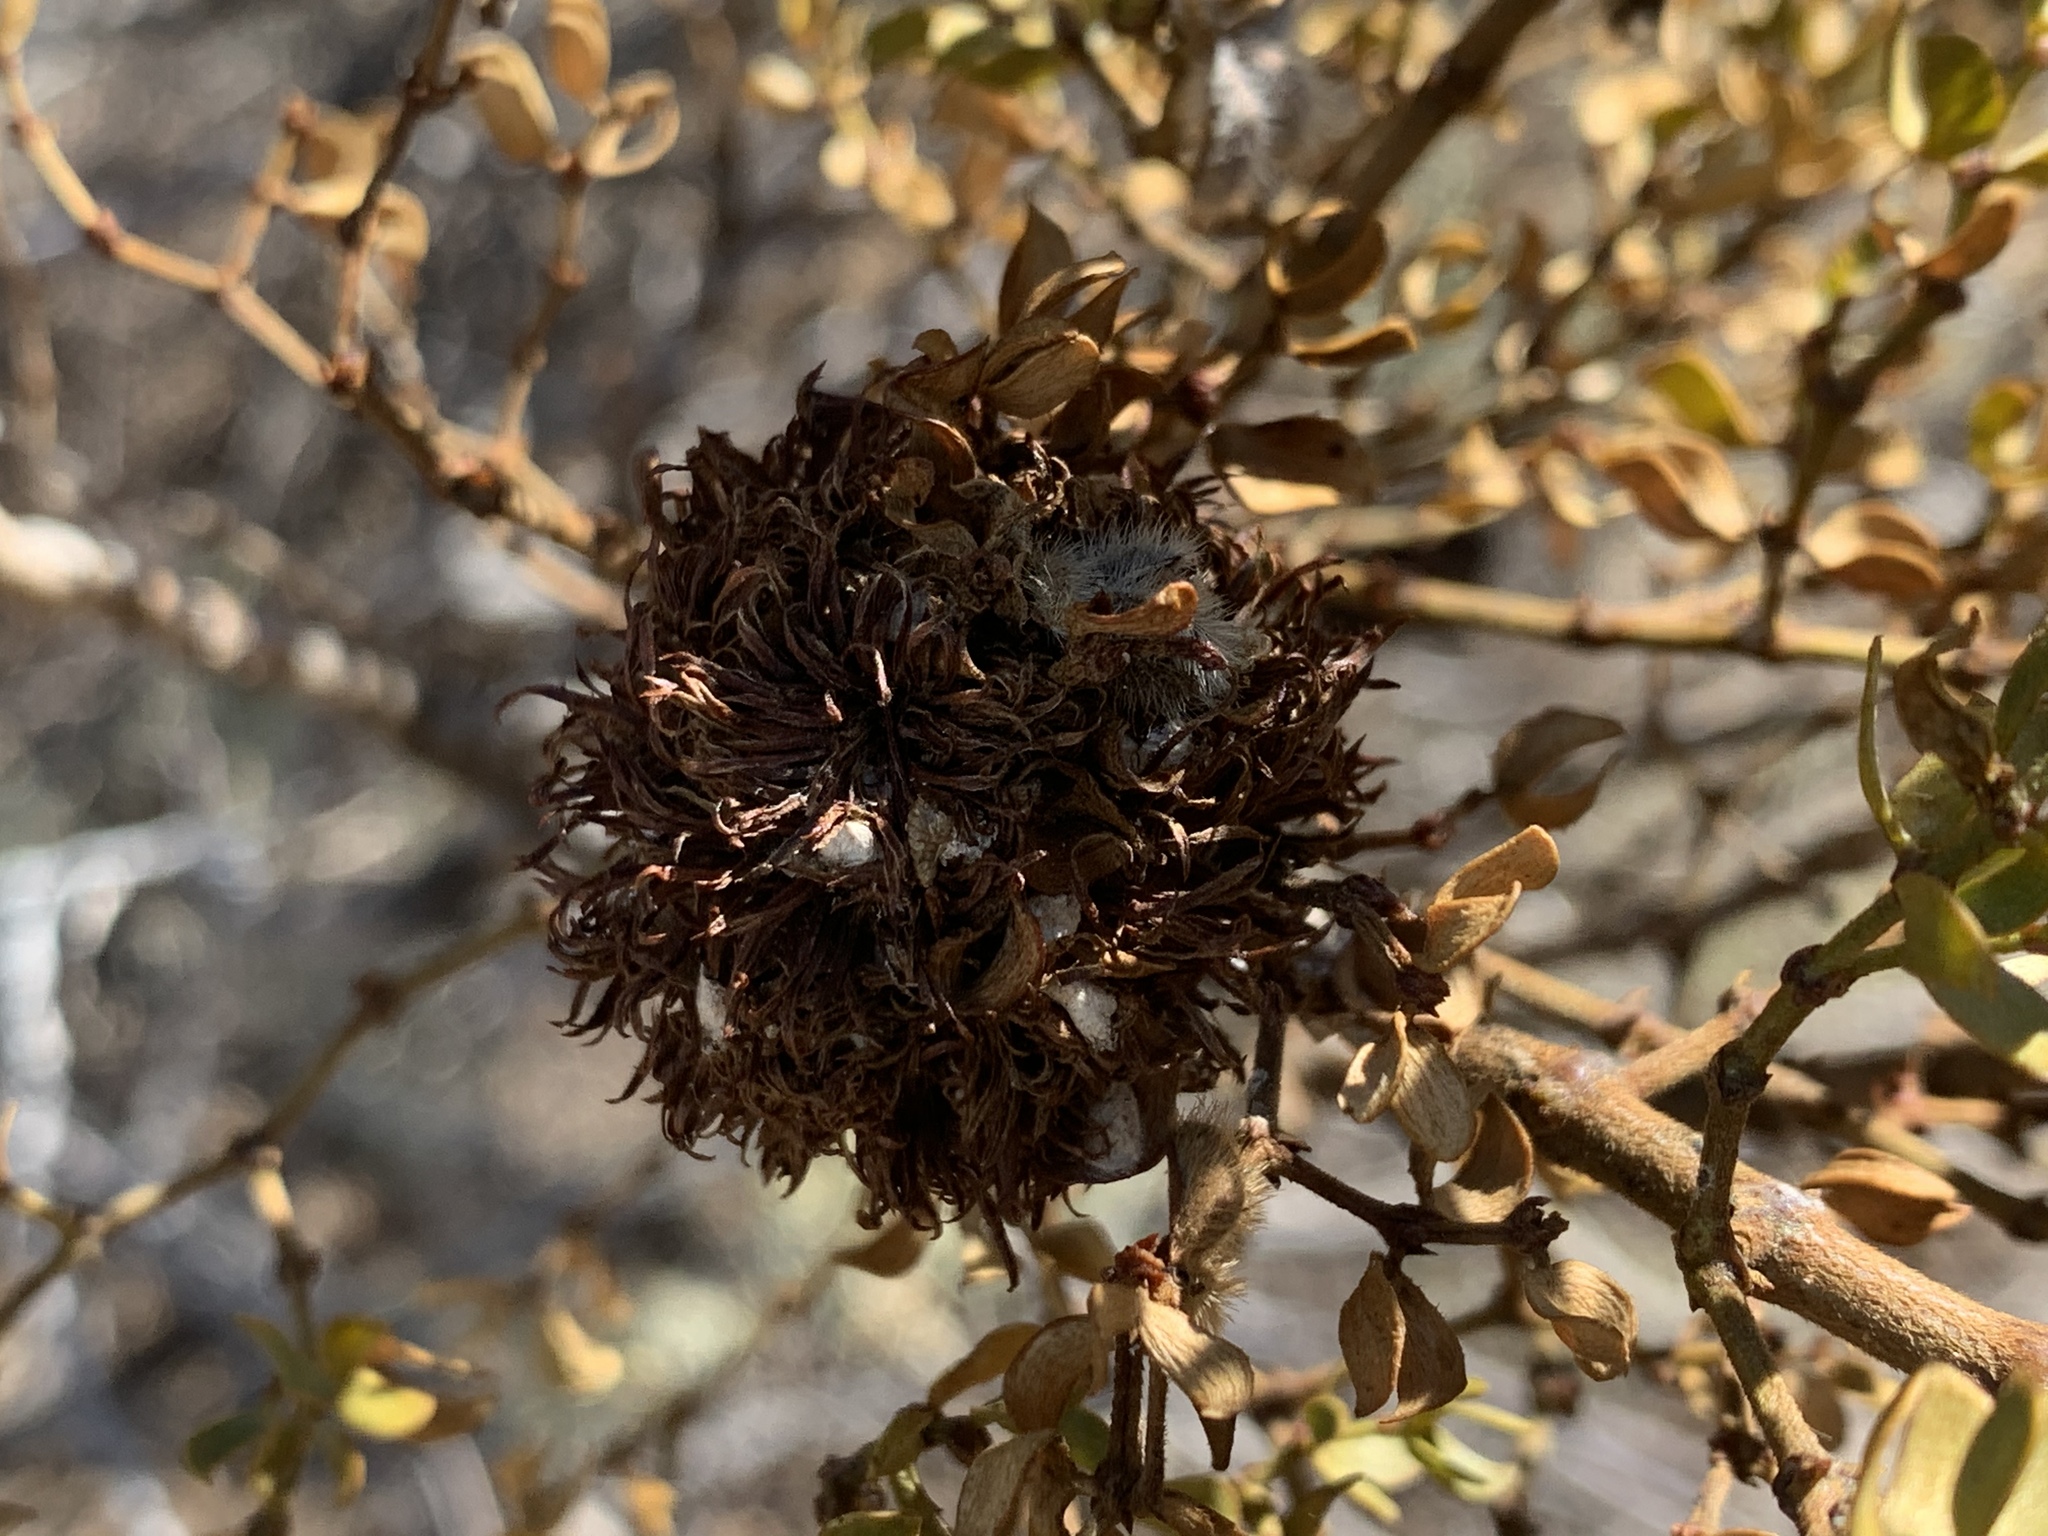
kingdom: Animalia
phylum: Arthropoda
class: Insecta
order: Diptera
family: Cecidomyiidae
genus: Asphondylia
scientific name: Asphondylia auripila
